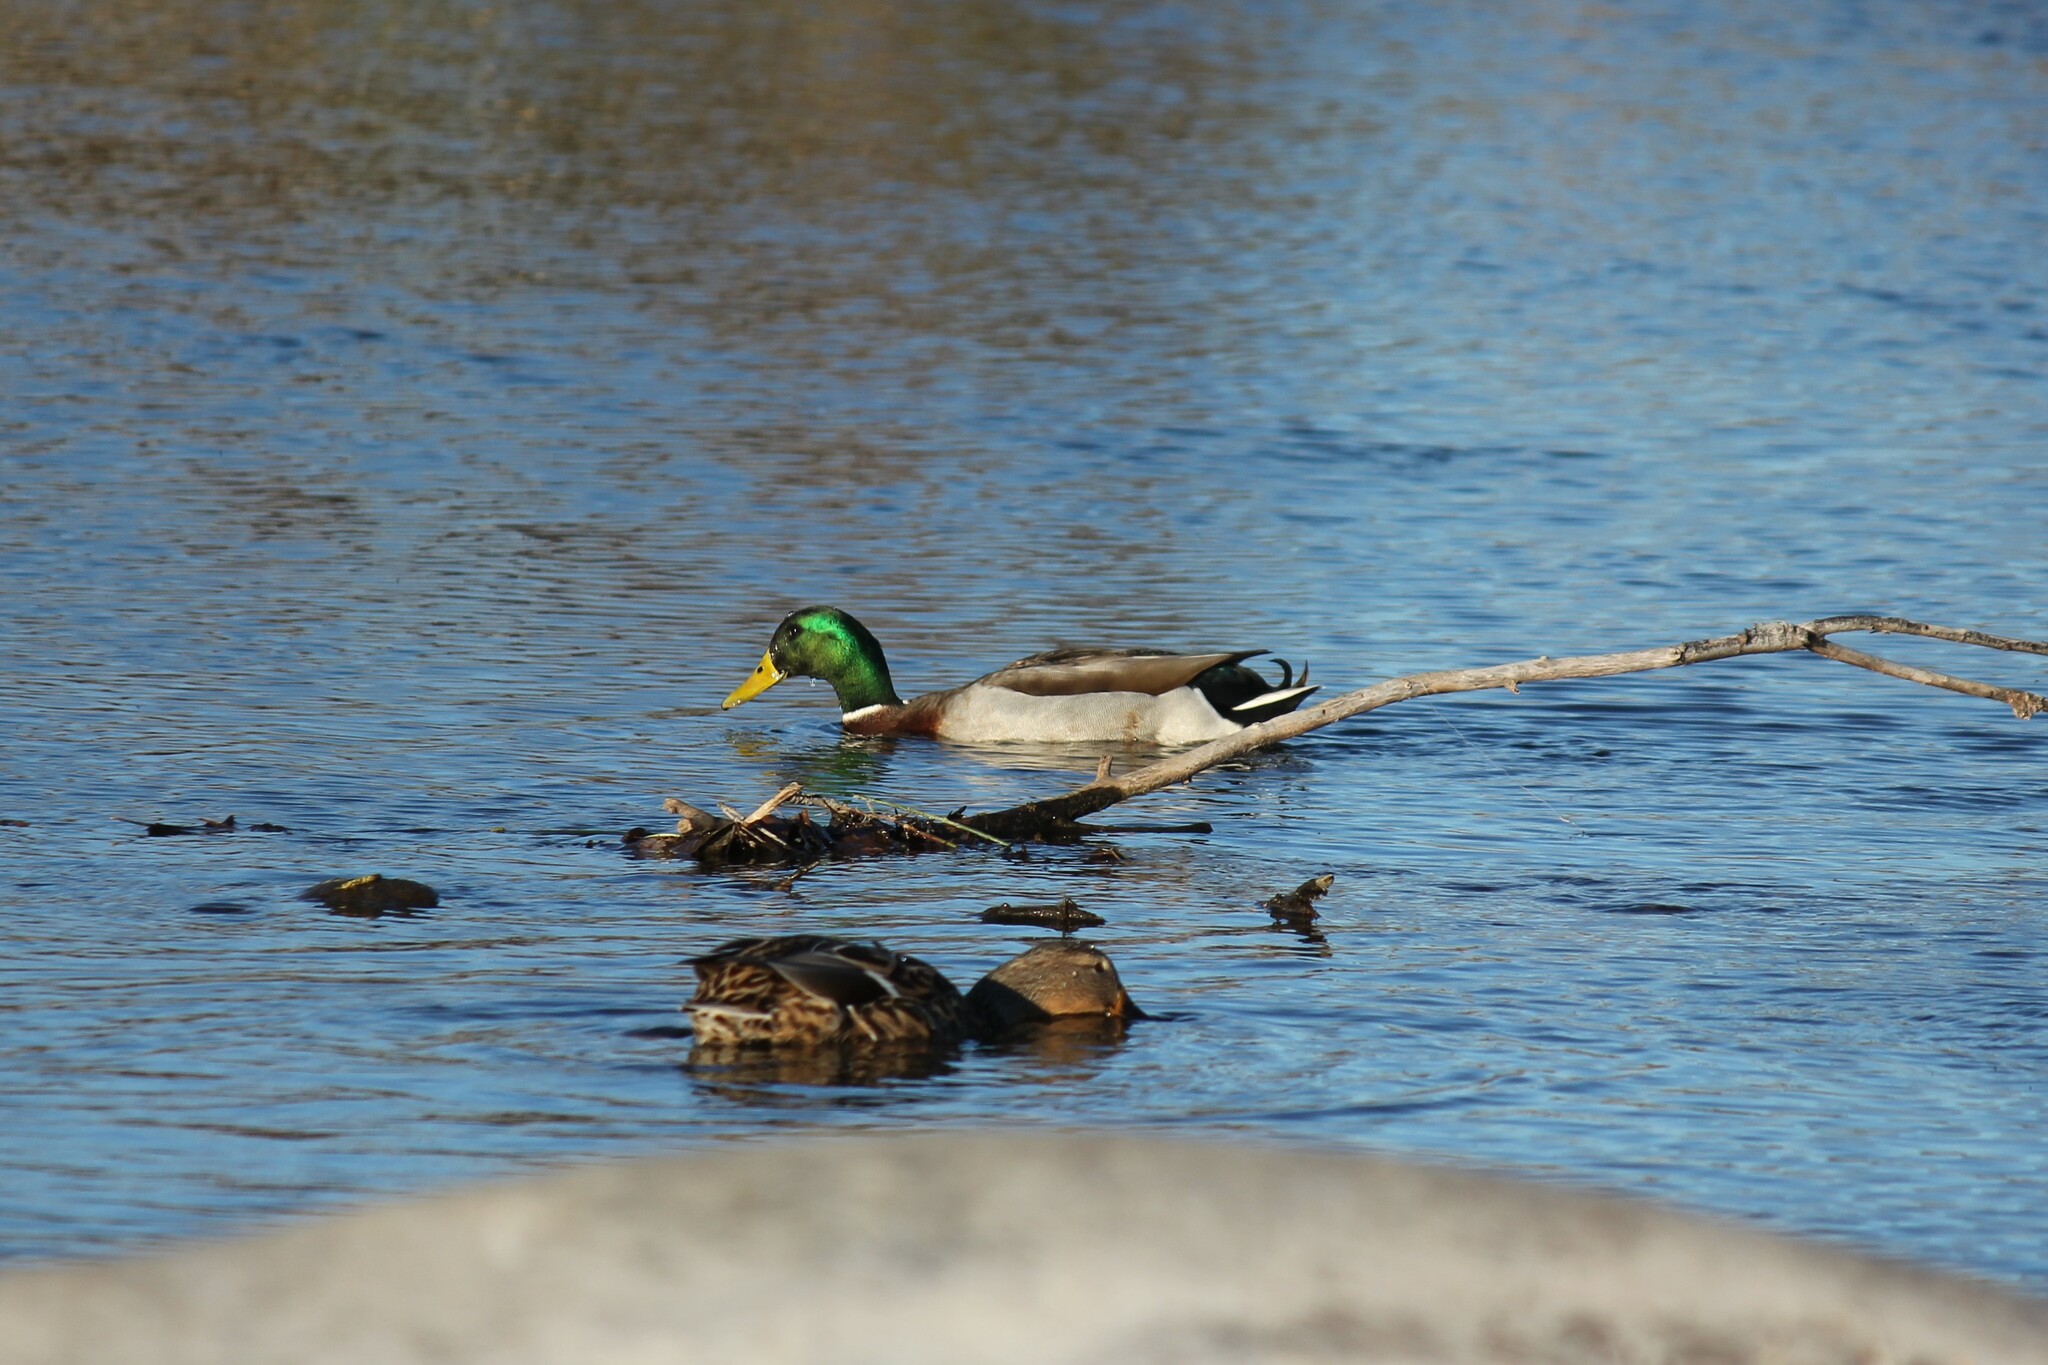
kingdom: Animalia
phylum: Chordata
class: Aves
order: Anseriformes
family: Anatidae
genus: Anas
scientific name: Anas platyrhynchos
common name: Mallard
